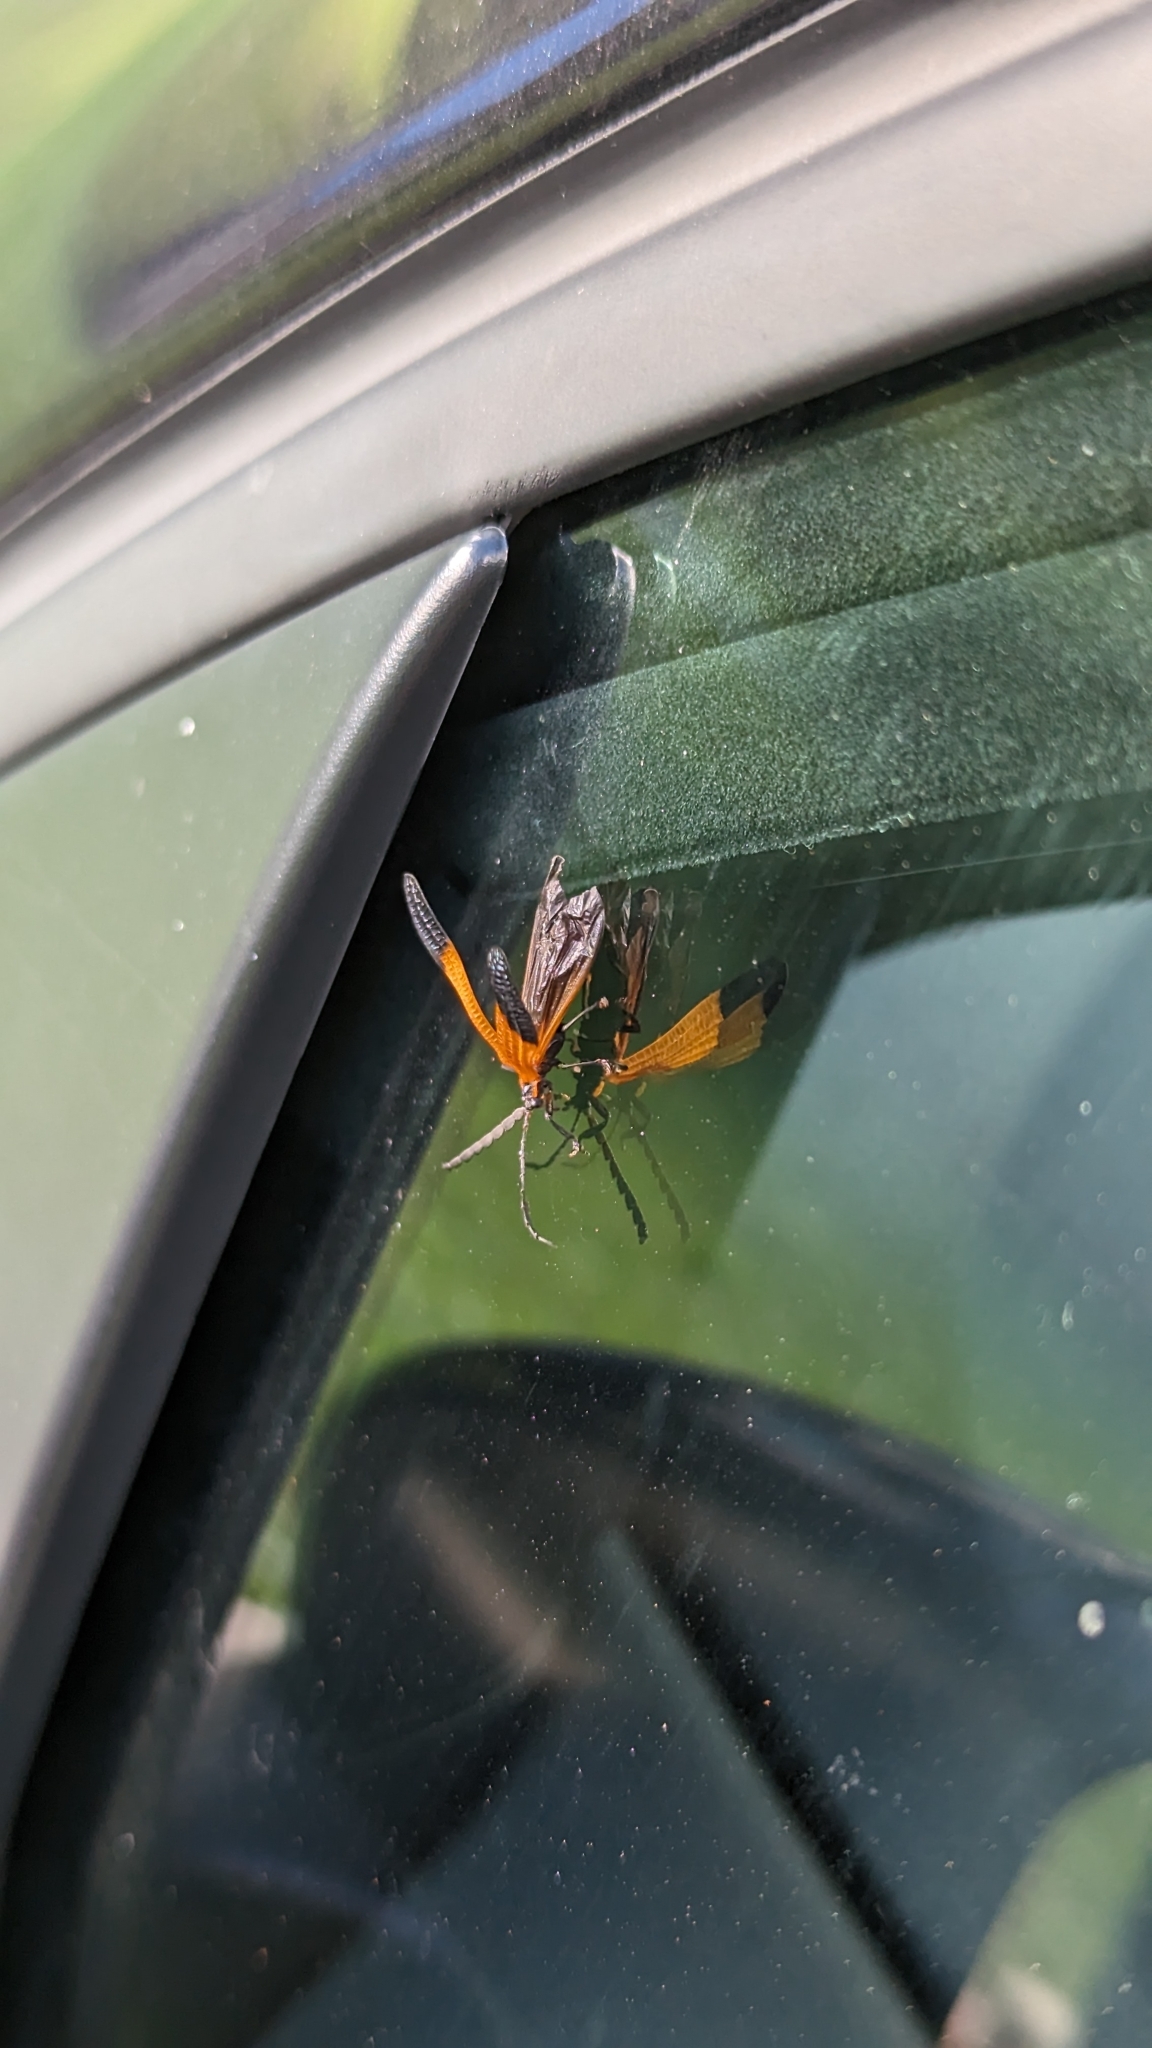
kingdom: Animalia
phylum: Arthropoda
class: Insecta
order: Coleoptera
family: Lycidae
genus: Calopteron
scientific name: Calopteron terminale
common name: End band net-winged beetle
